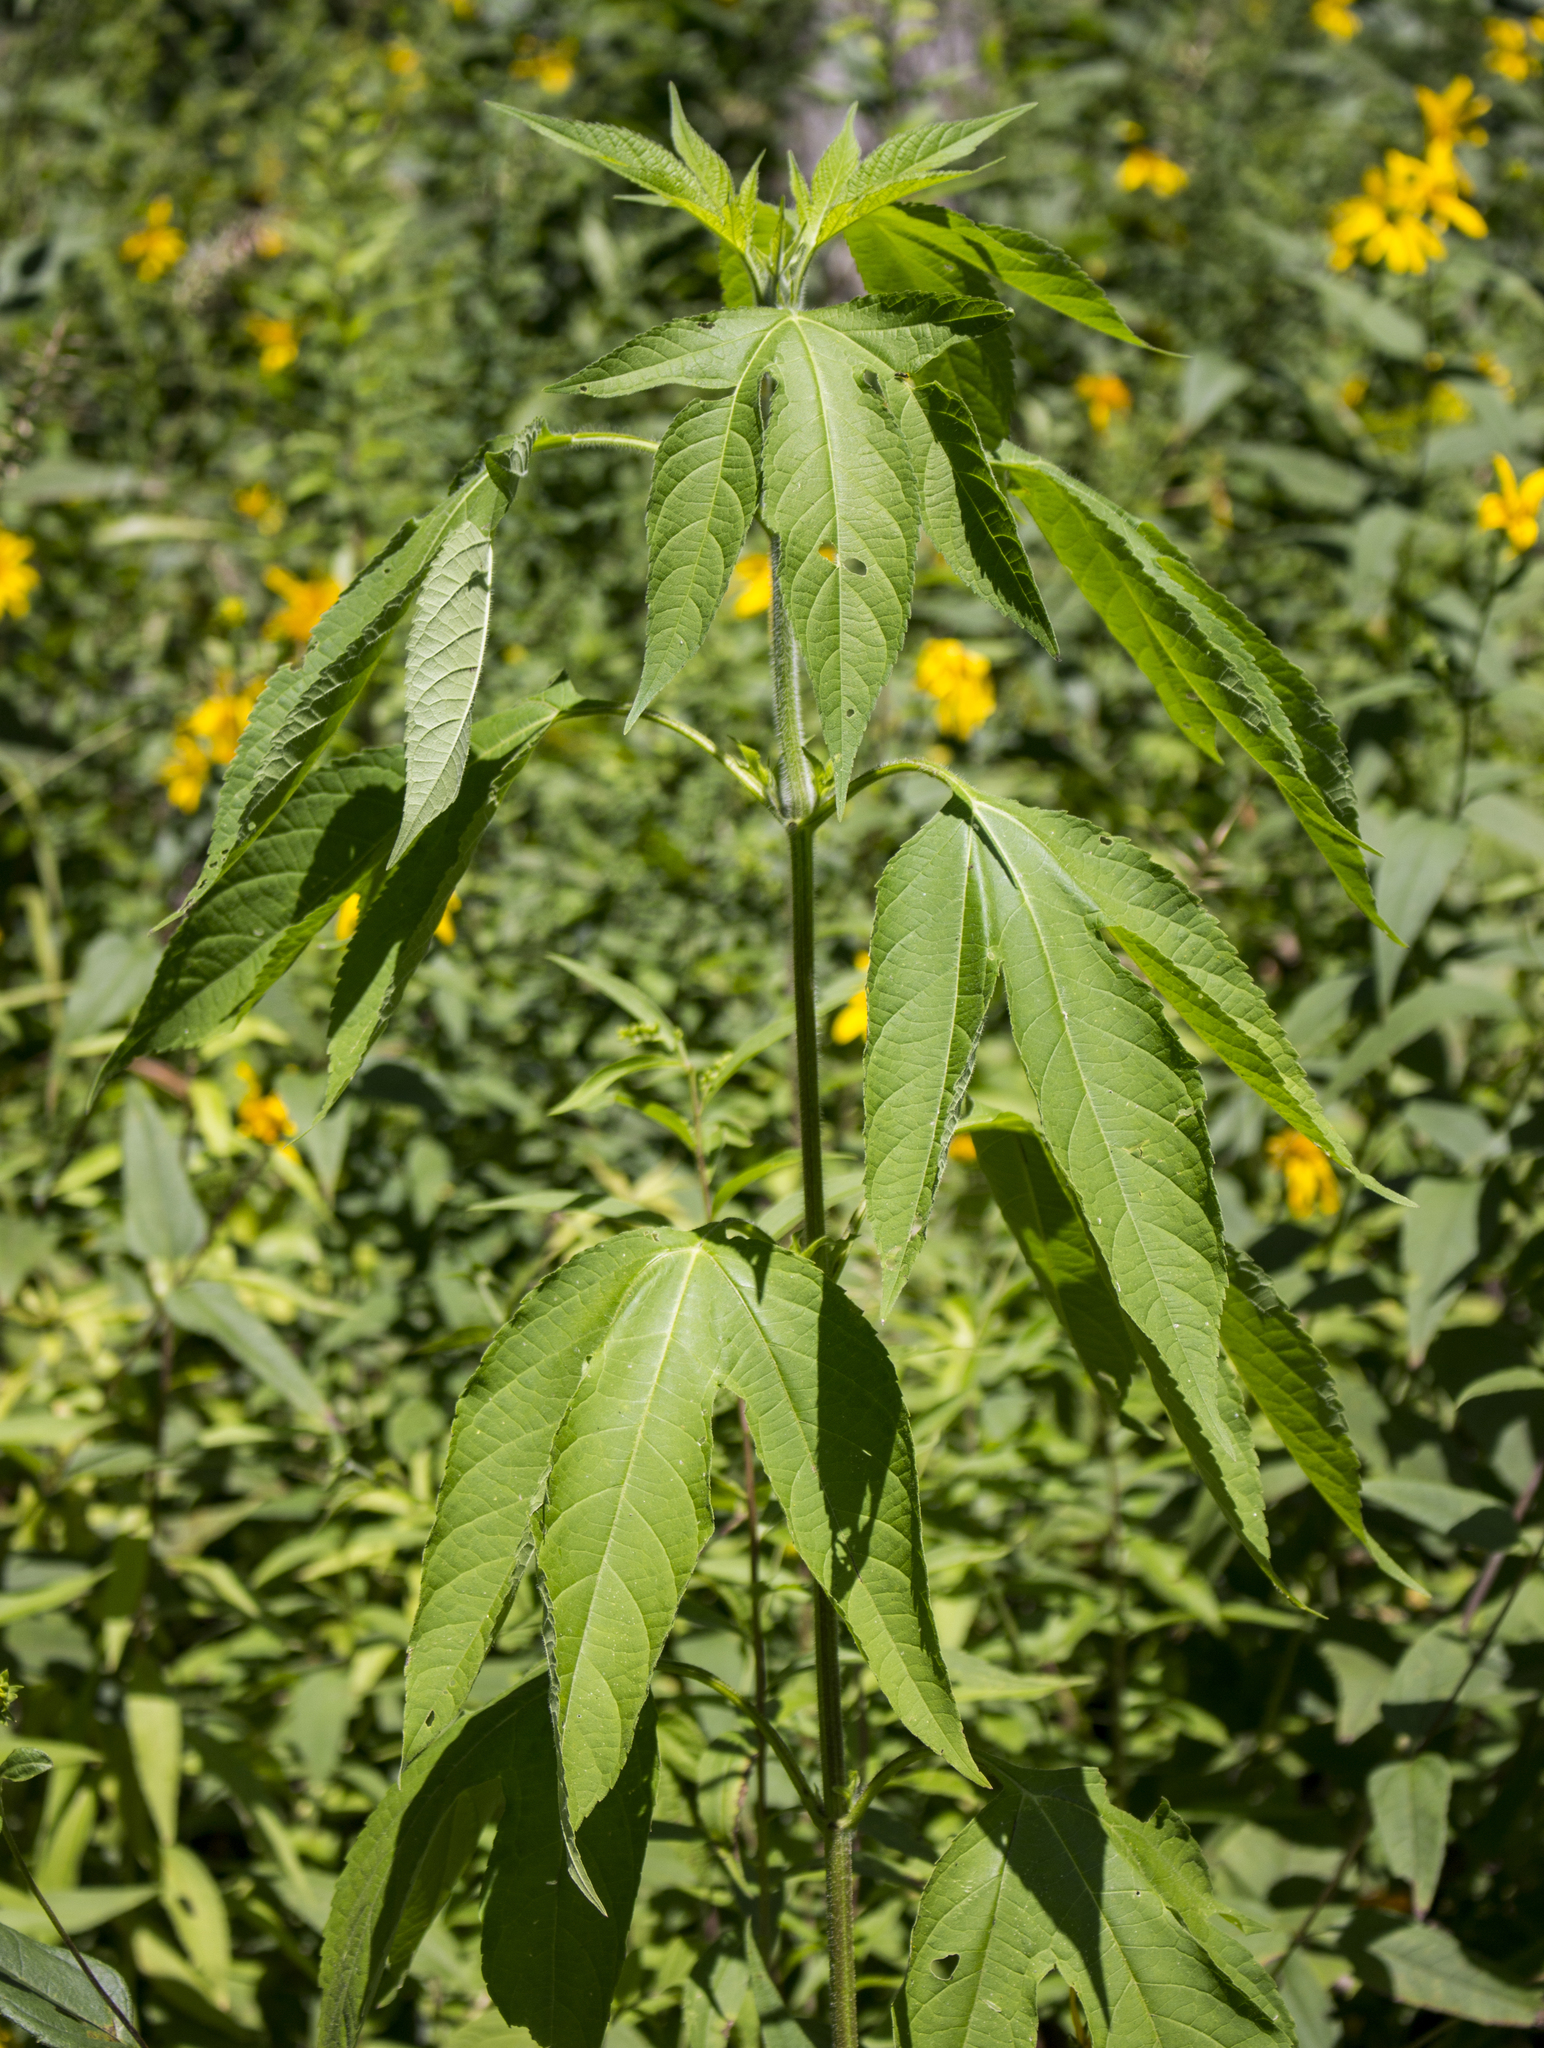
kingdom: Plantae
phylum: Tracheophyta
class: Magnoliopsida
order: Asterales
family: Asteraceae
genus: Ambrosia
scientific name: Ambrosia trifida
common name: Giant ragweed
